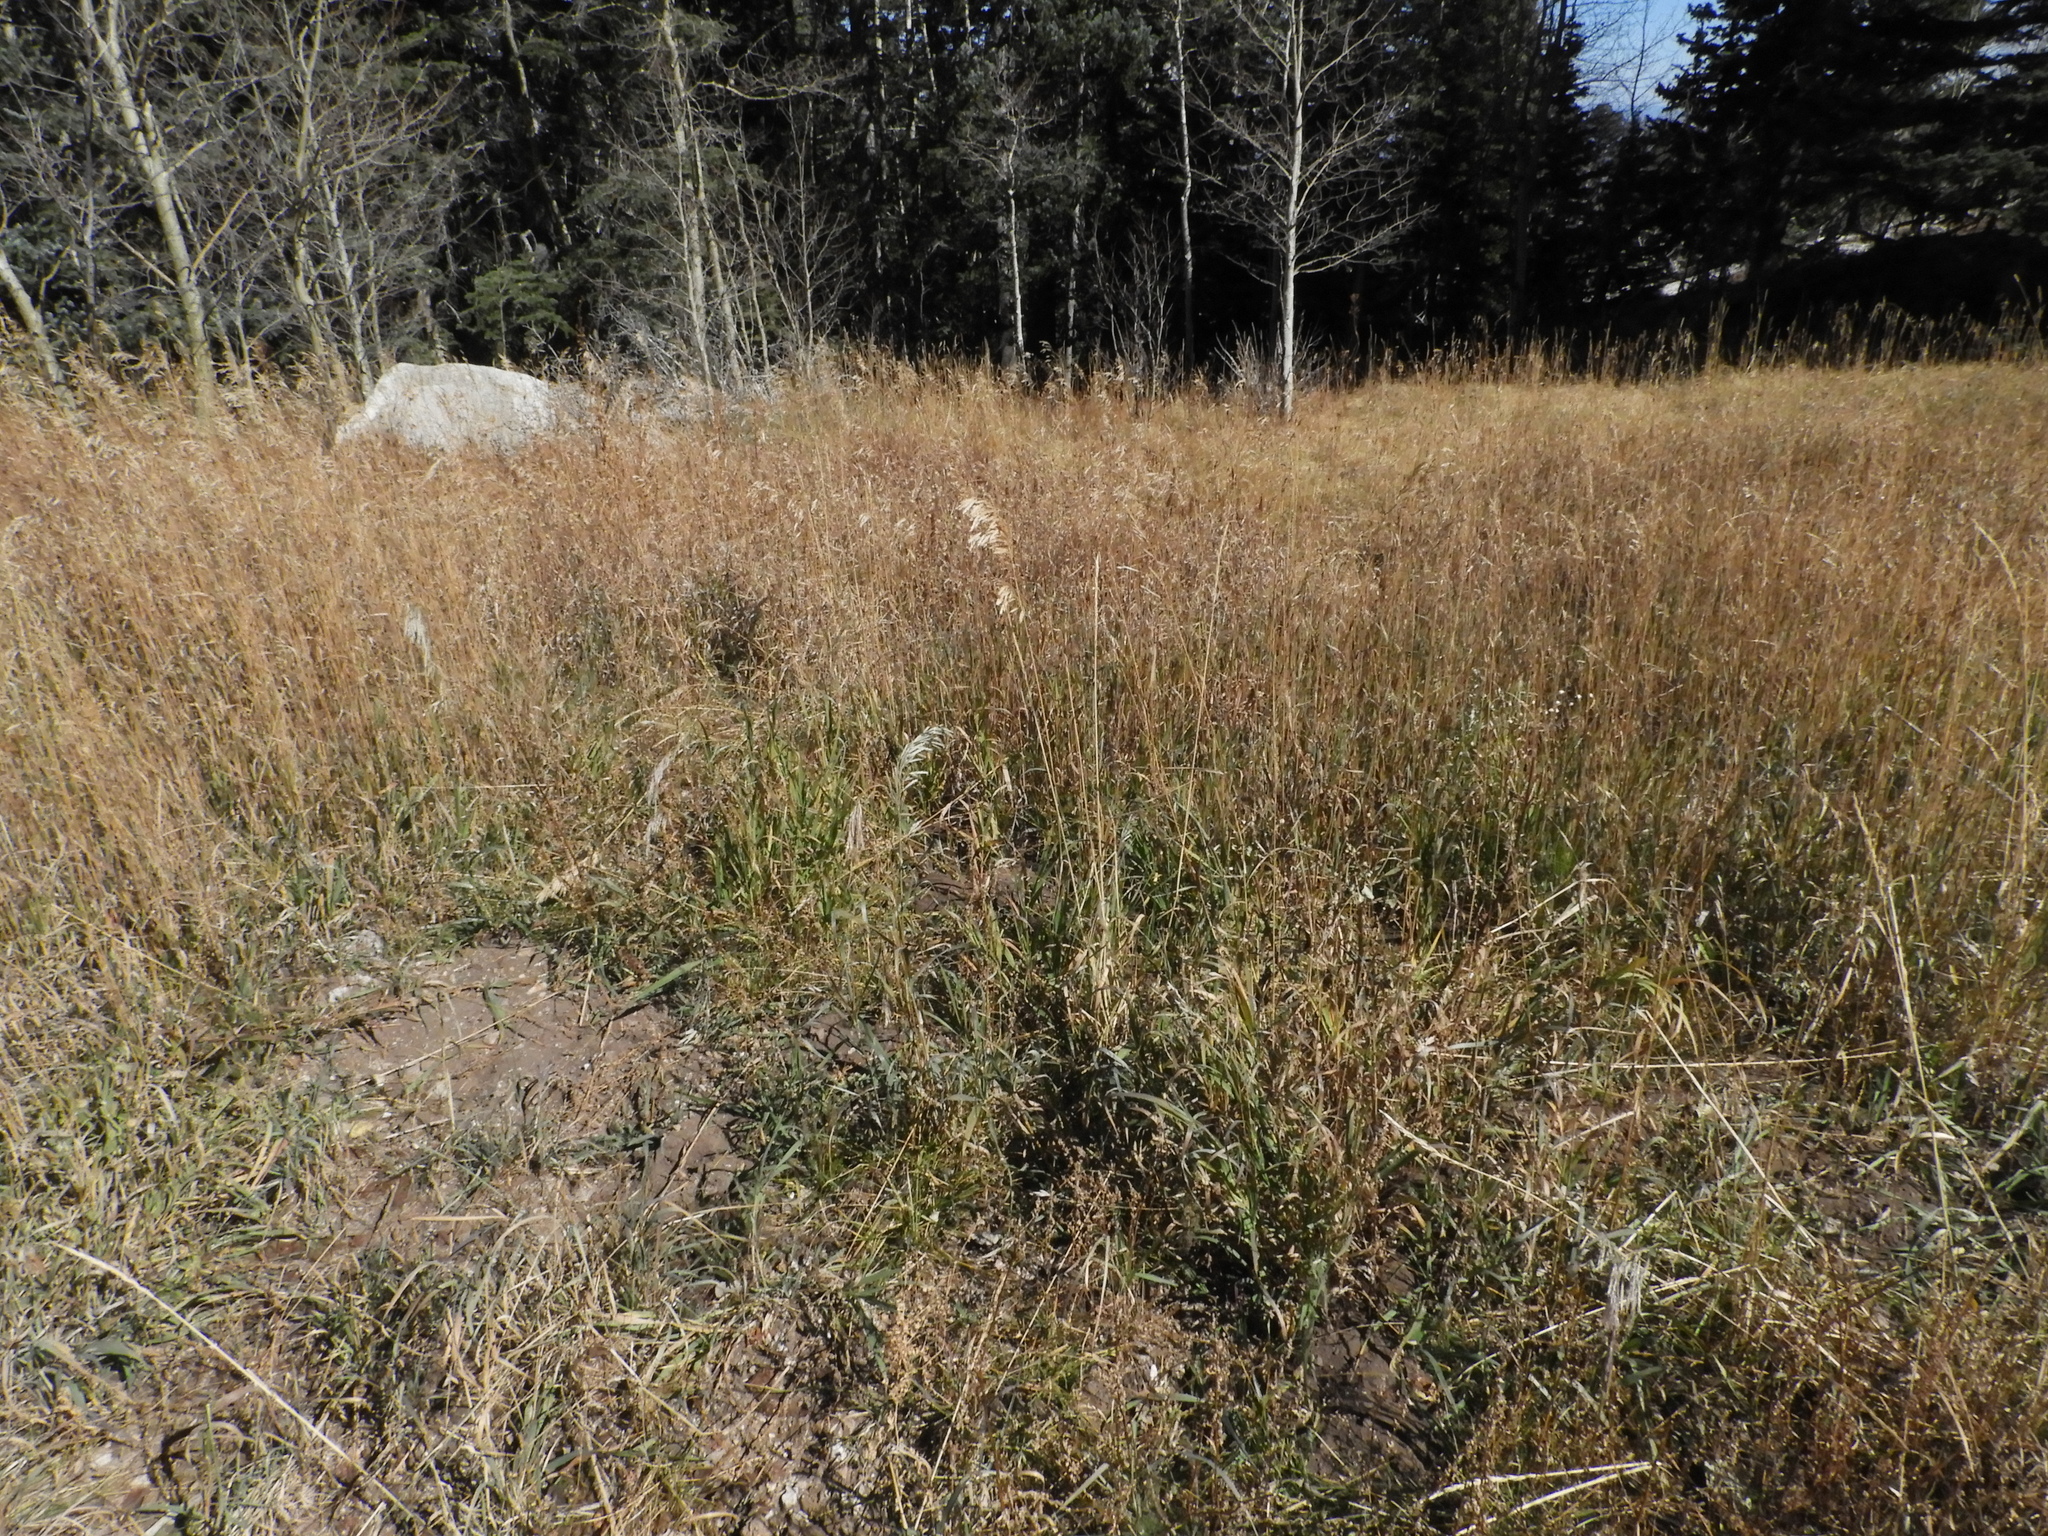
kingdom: Plantae
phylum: Tracheophyta
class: Liliopsida
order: Poales
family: Poaceae
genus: Bromus
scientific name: Bromus inermis
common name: Smooth brome
